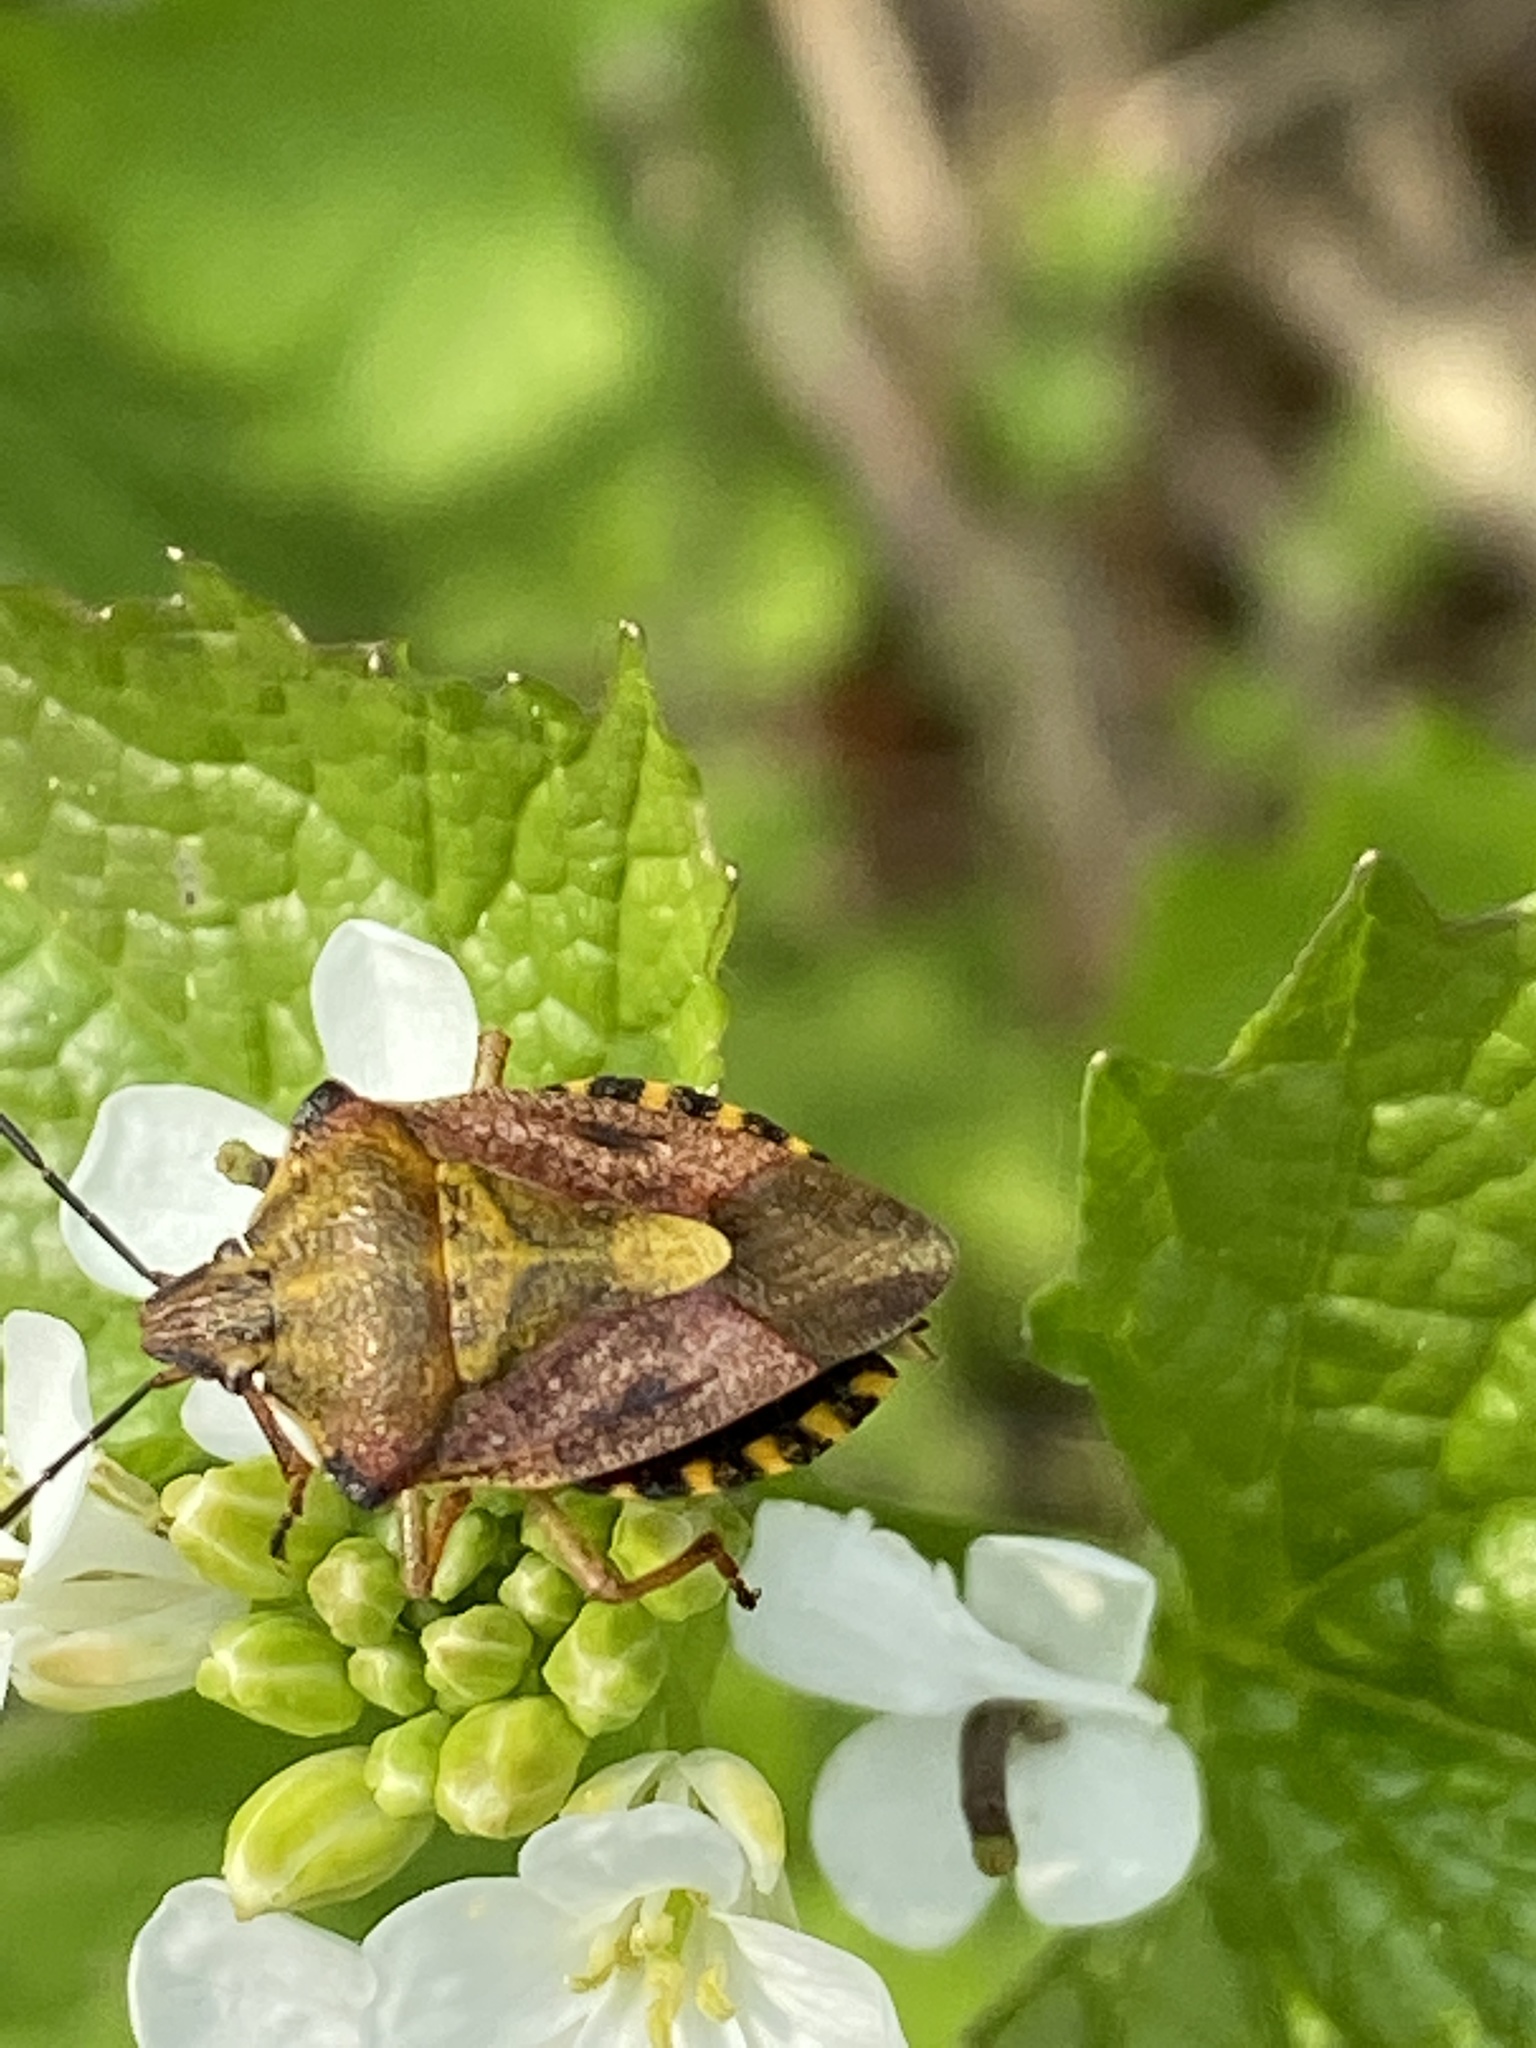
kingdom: Animalia
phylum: Arthropoda
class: Insecta
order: Hemiptera
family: Pentatomidae
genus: Carpocoris
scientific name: Carpocoris purpureipennis
